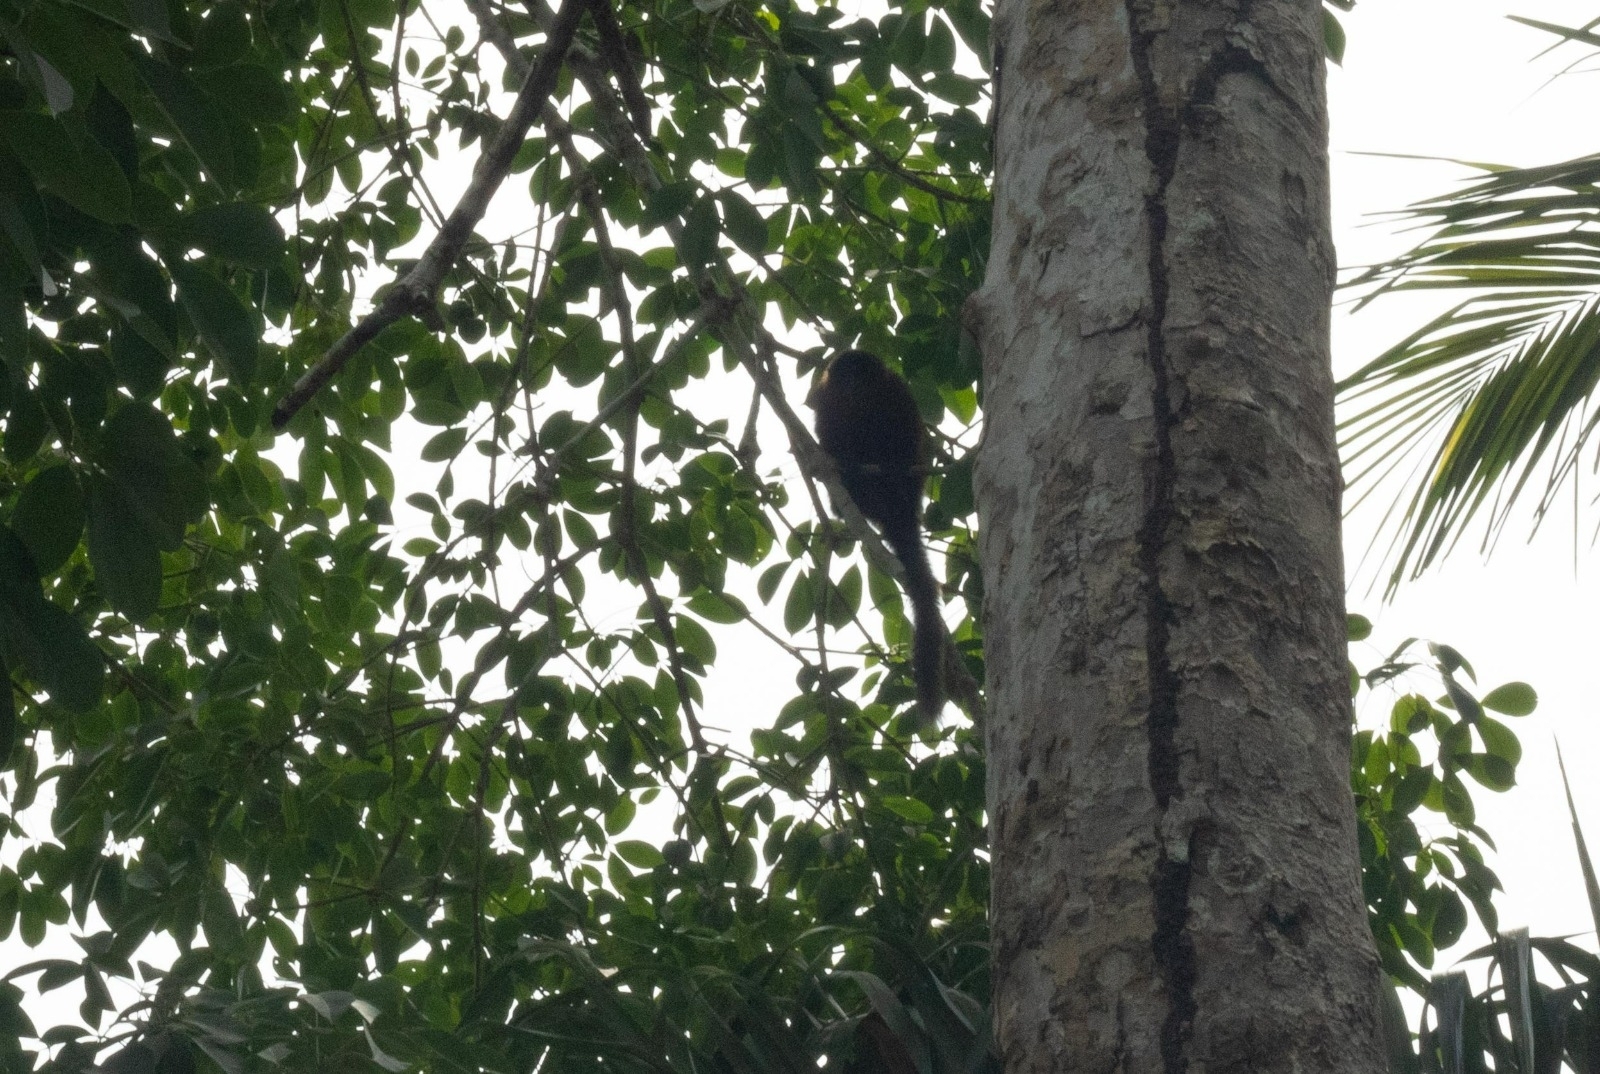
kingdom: Animalia
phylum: Chordata
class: Mammalia
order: Primates
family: Pitheciidae
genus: Plecturocebus
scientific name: Plecturocebus caligatus
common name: Chestnut-bellied titi
